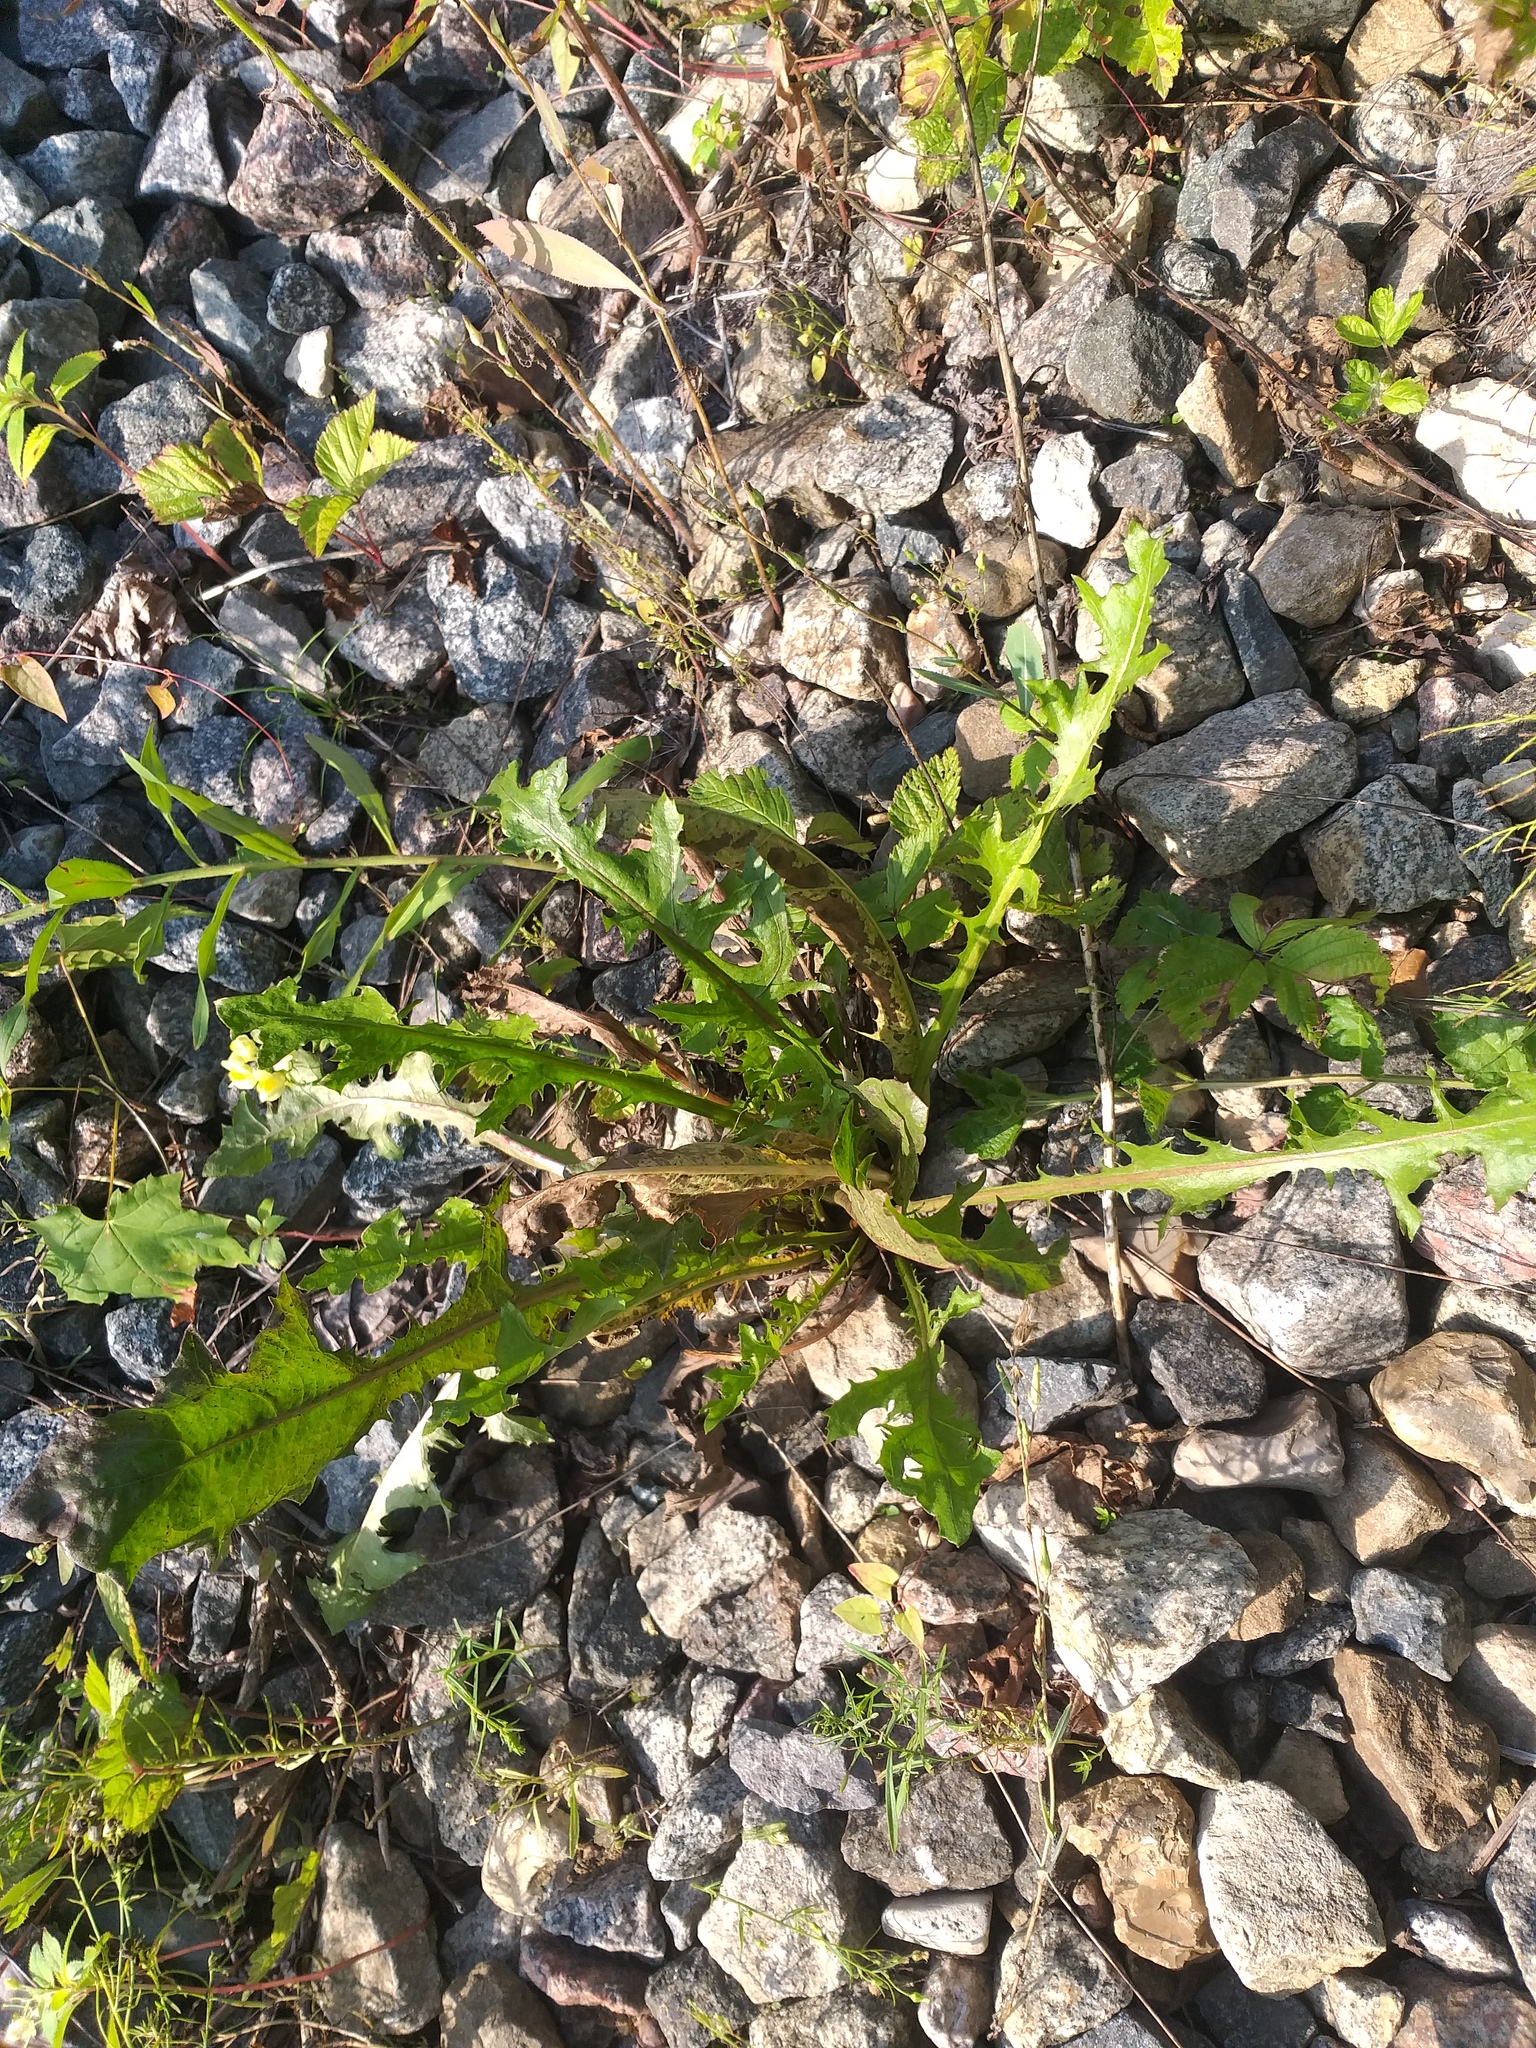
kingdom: Plantae
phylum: Tracheophyta
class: Magnoliopsida
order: Asterales
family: Asteraceae
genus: Taraxacum
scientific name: Taraxacum officinale
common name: Common dandelion
